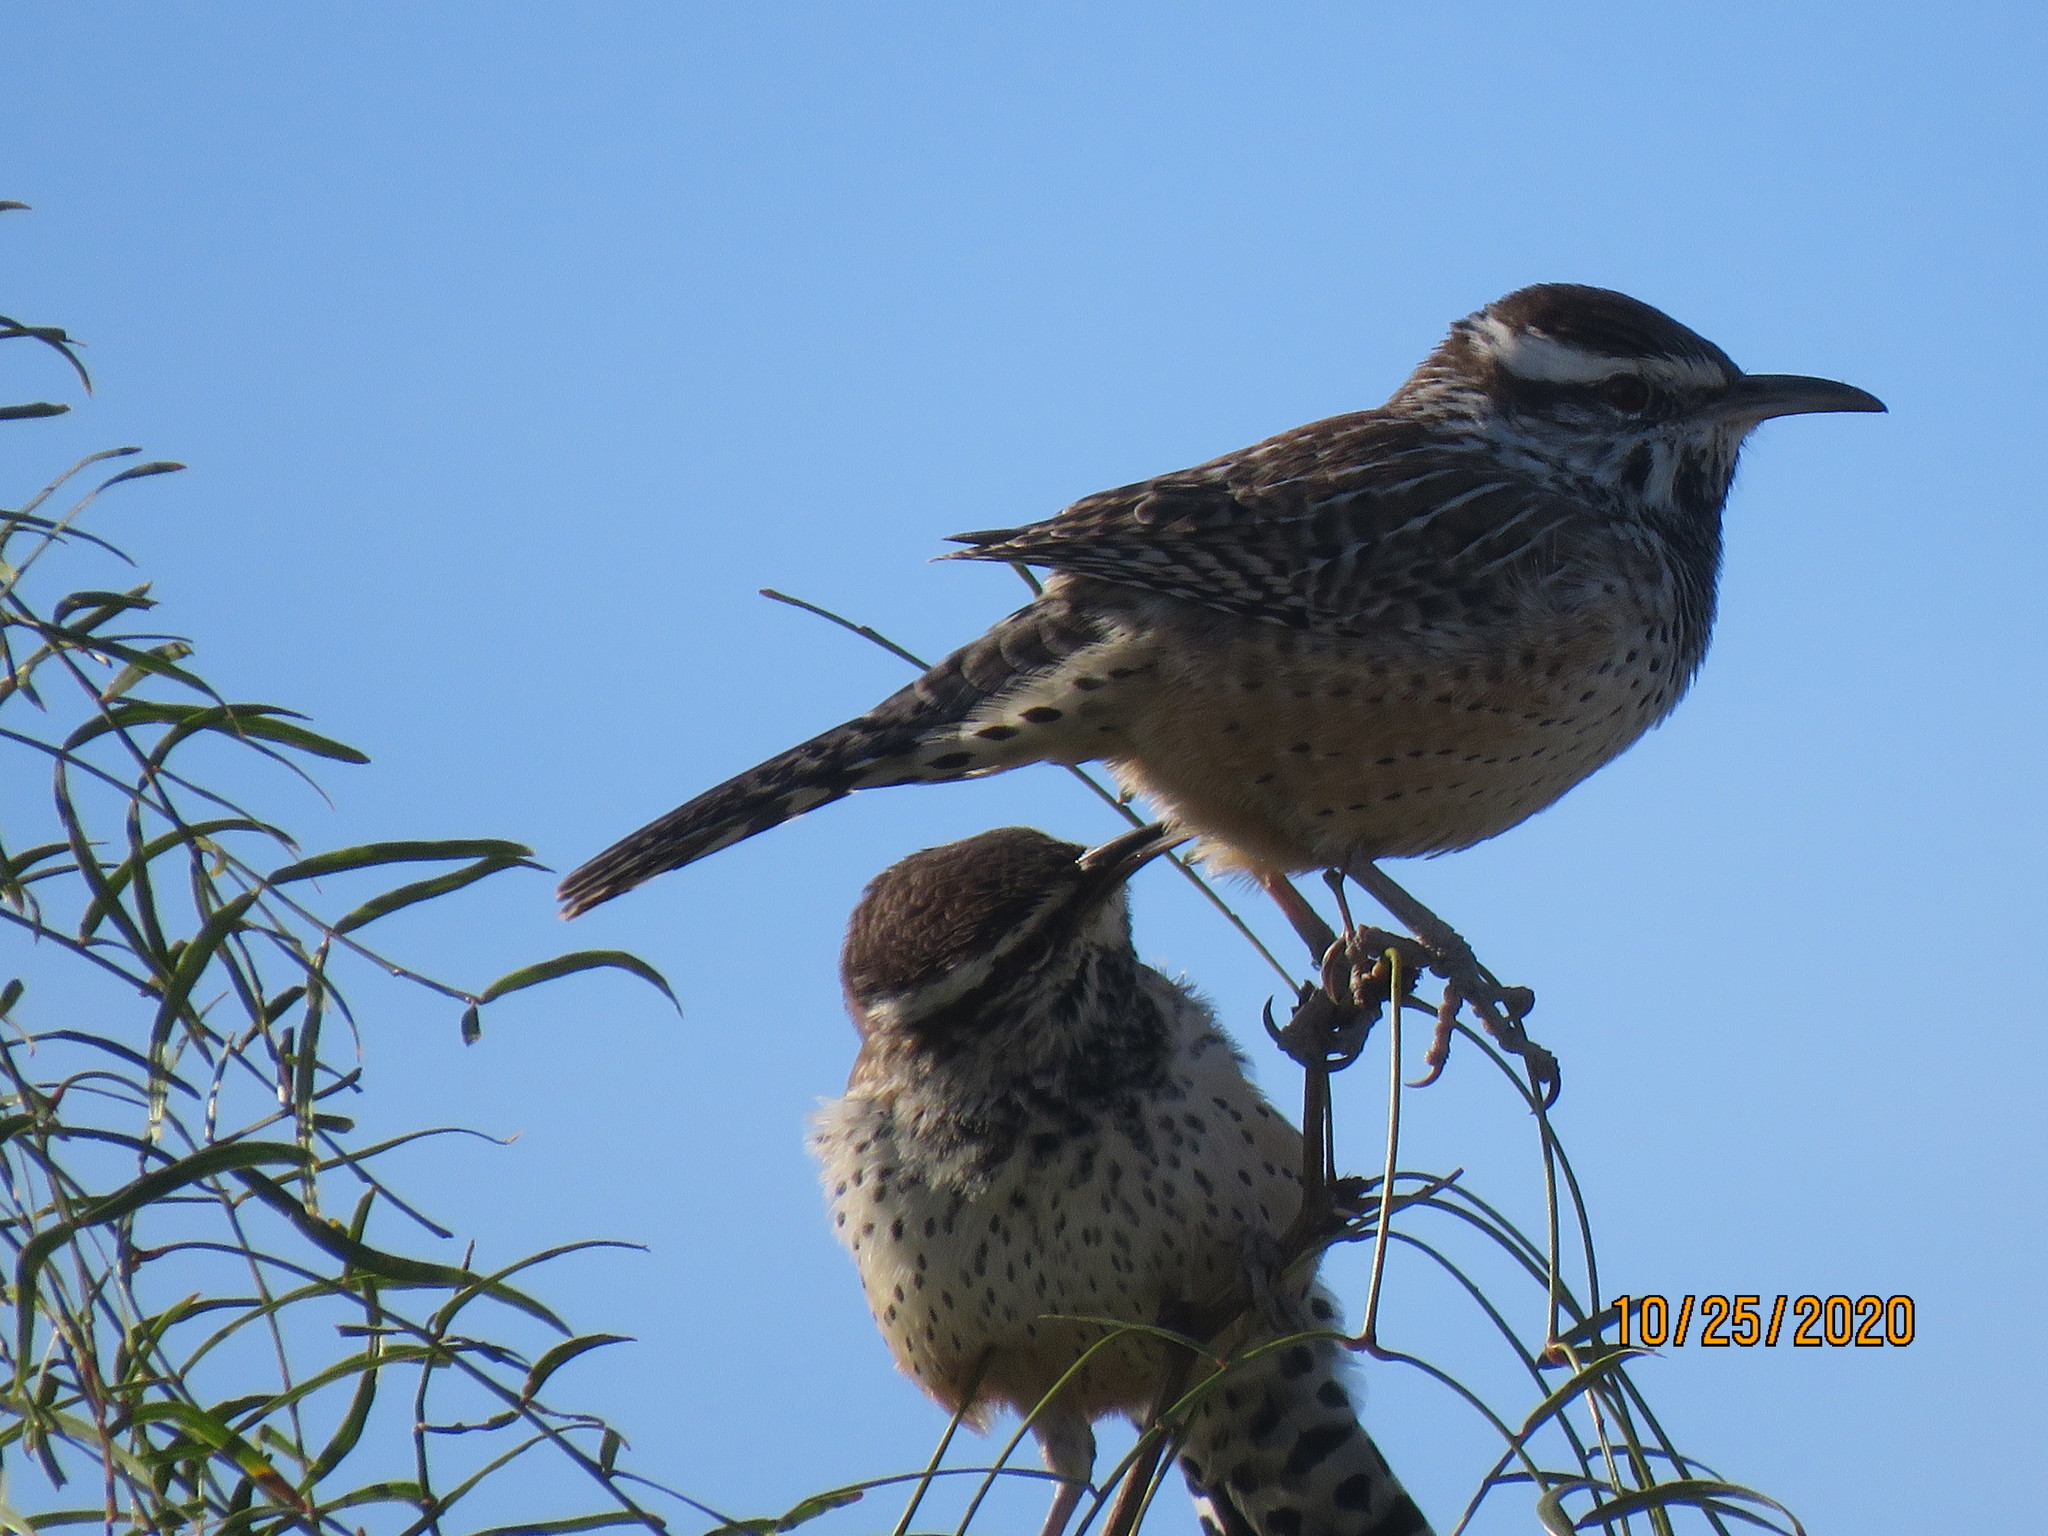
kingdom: Animalia
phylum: Chordata
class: Aves
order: Passeriformes
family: Troglodytidae
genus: Campylorhynchus
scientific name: Campylorhynchus brunneicapillus
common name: Cactus wren
